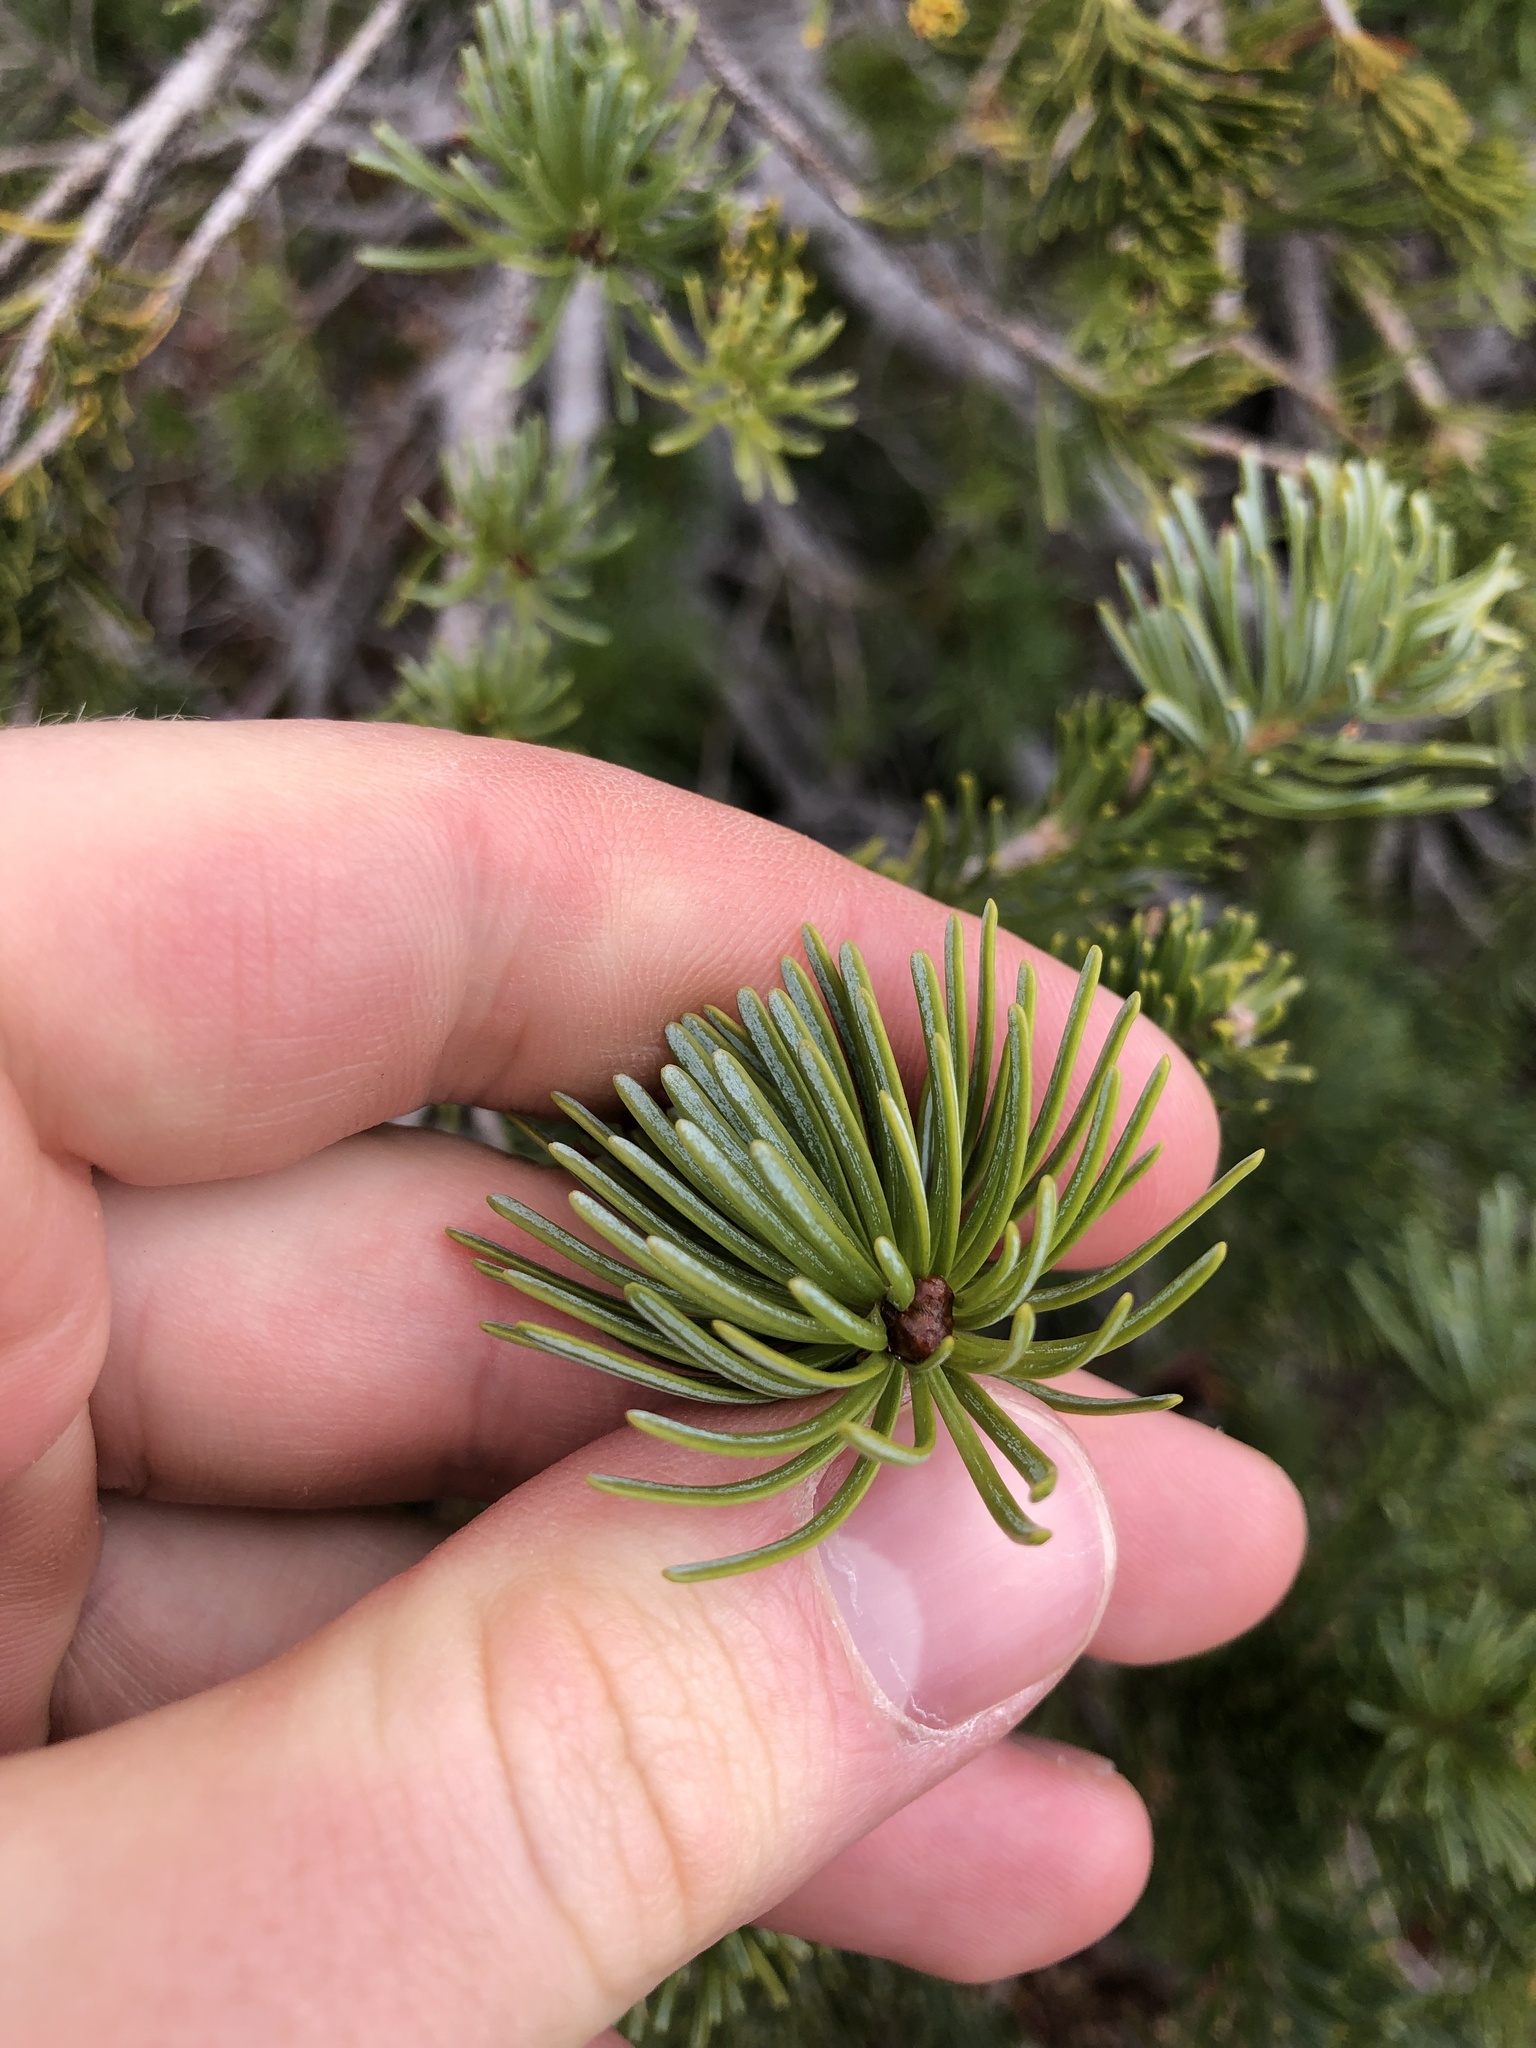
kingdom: Plantae
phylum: Tracheophyta
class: Pinopsida
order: Pinales
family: Pinaceae
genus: Abies
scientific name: Abies lasiocarpa
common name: Subalpine fir
